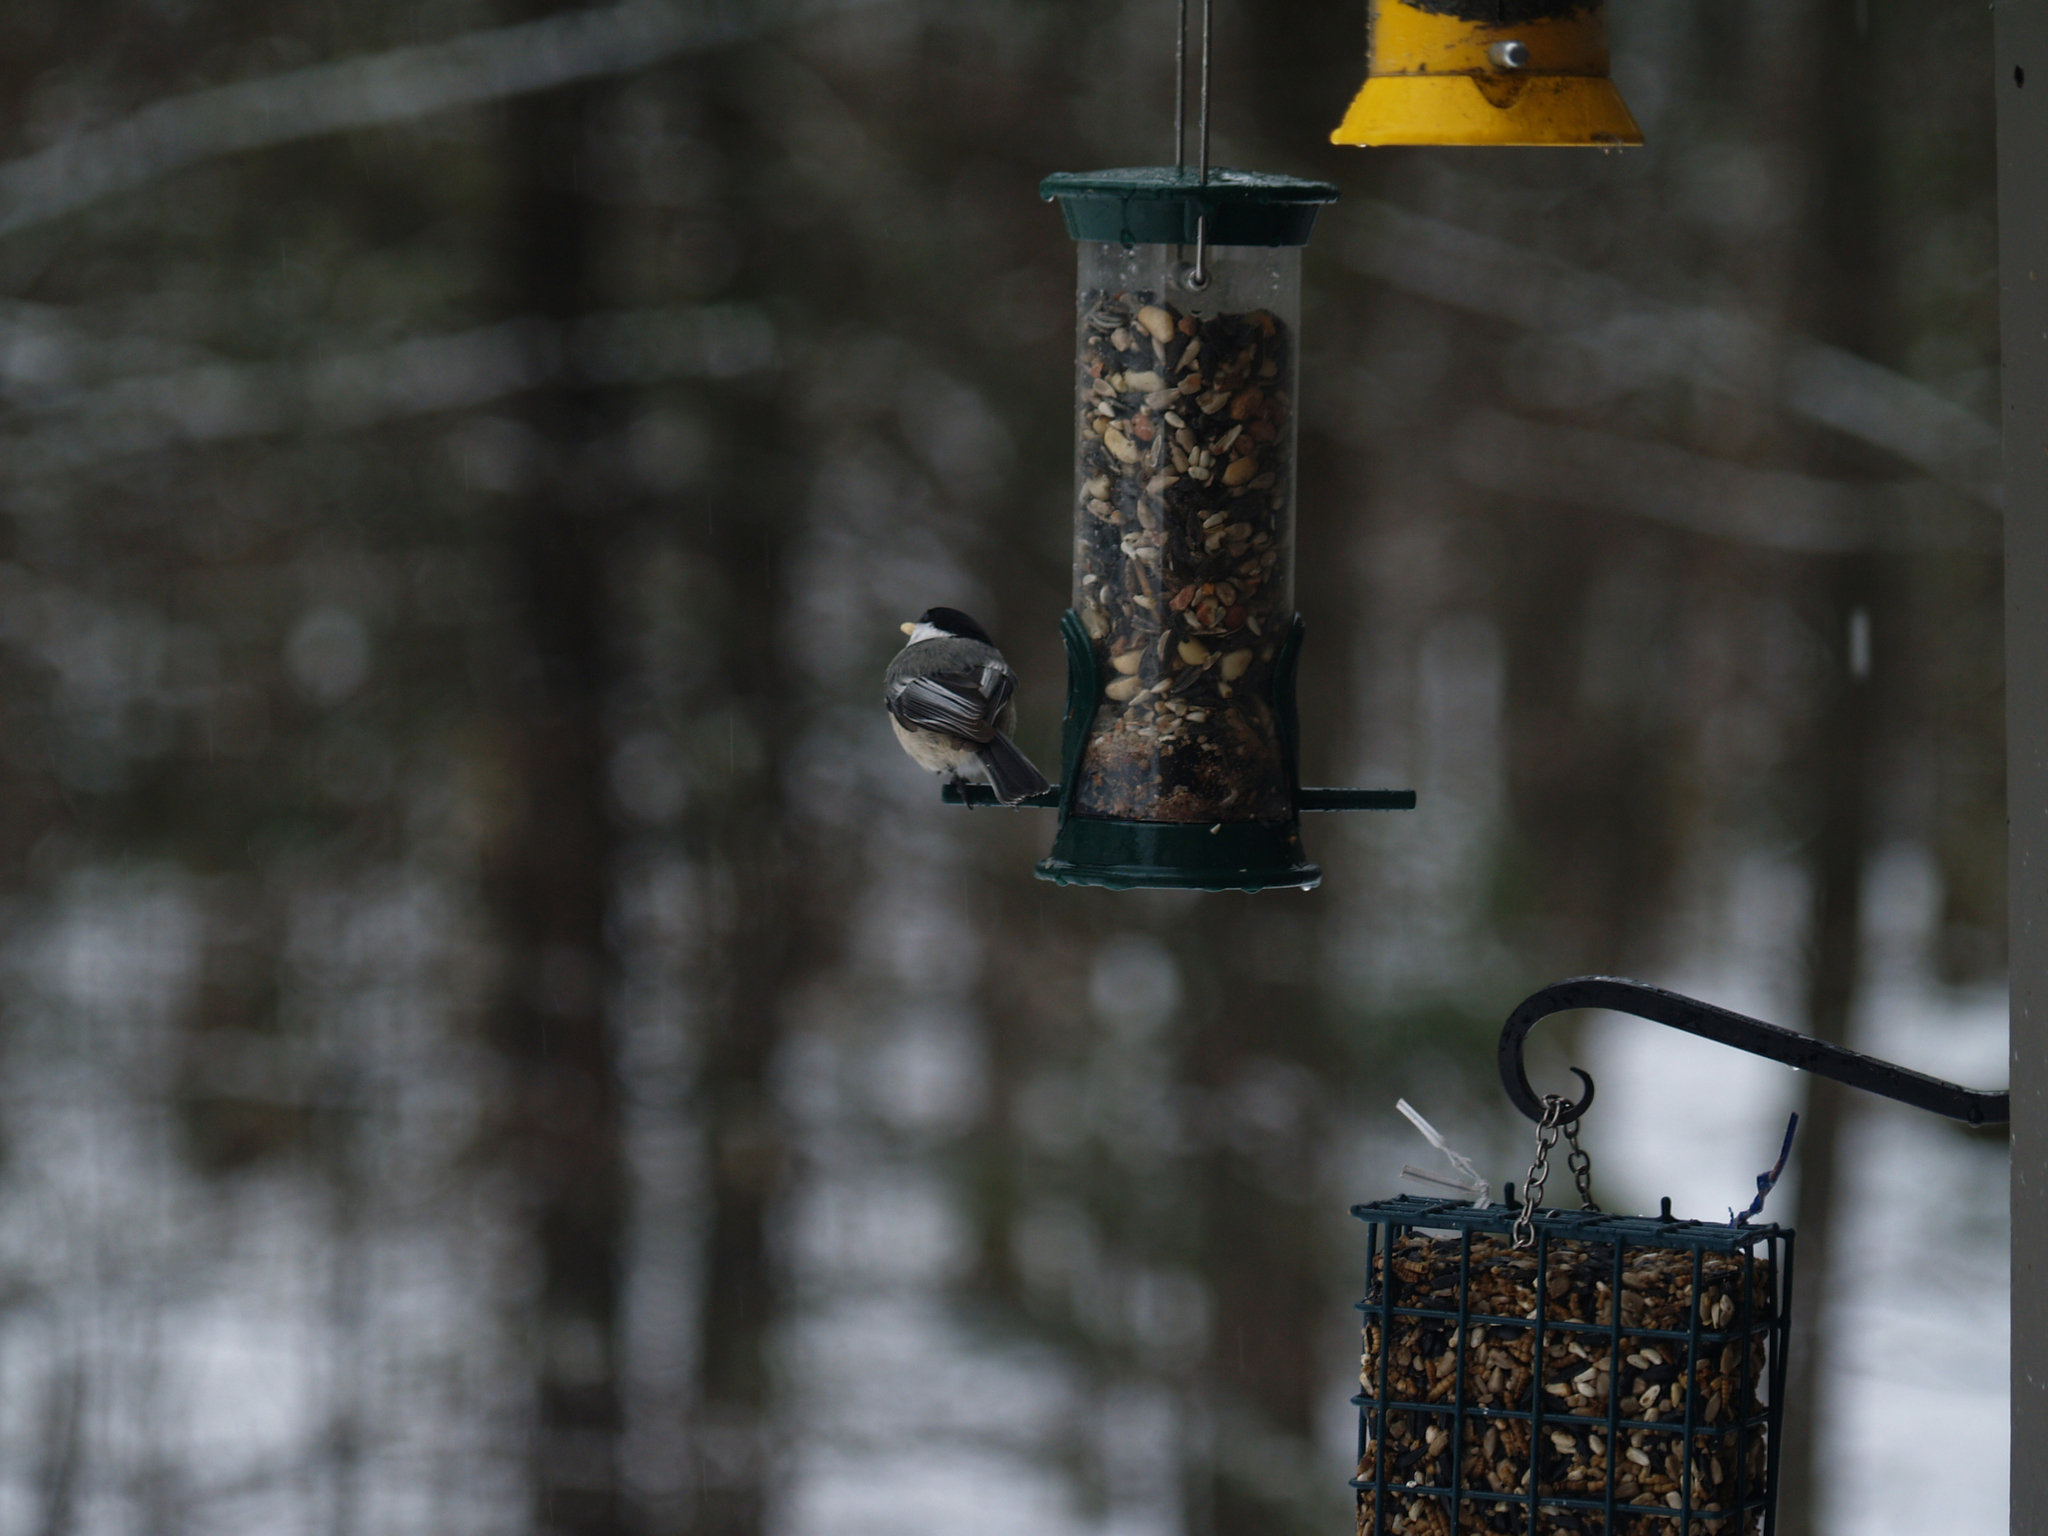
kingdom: Animalia
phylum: Chordata
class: Aves
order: Passeriformes
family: Paridae
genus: Poecile
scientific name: Poecile atricapillus
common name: Black-capped chickadee
